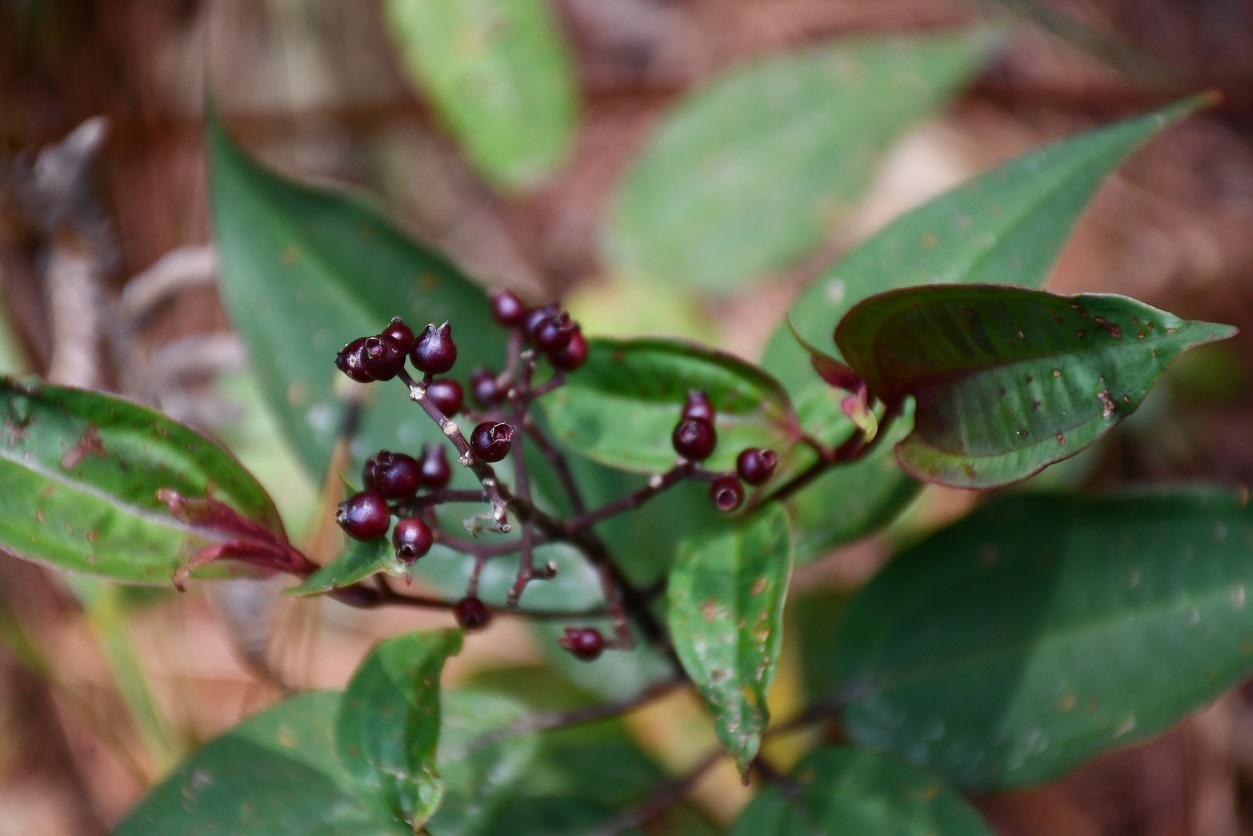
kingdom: Plantae
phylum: Tracheophyta
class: Magnoliopsida
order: Myrtales
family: Melastomataceae
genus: Miconia
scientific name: Miconia mexicana
